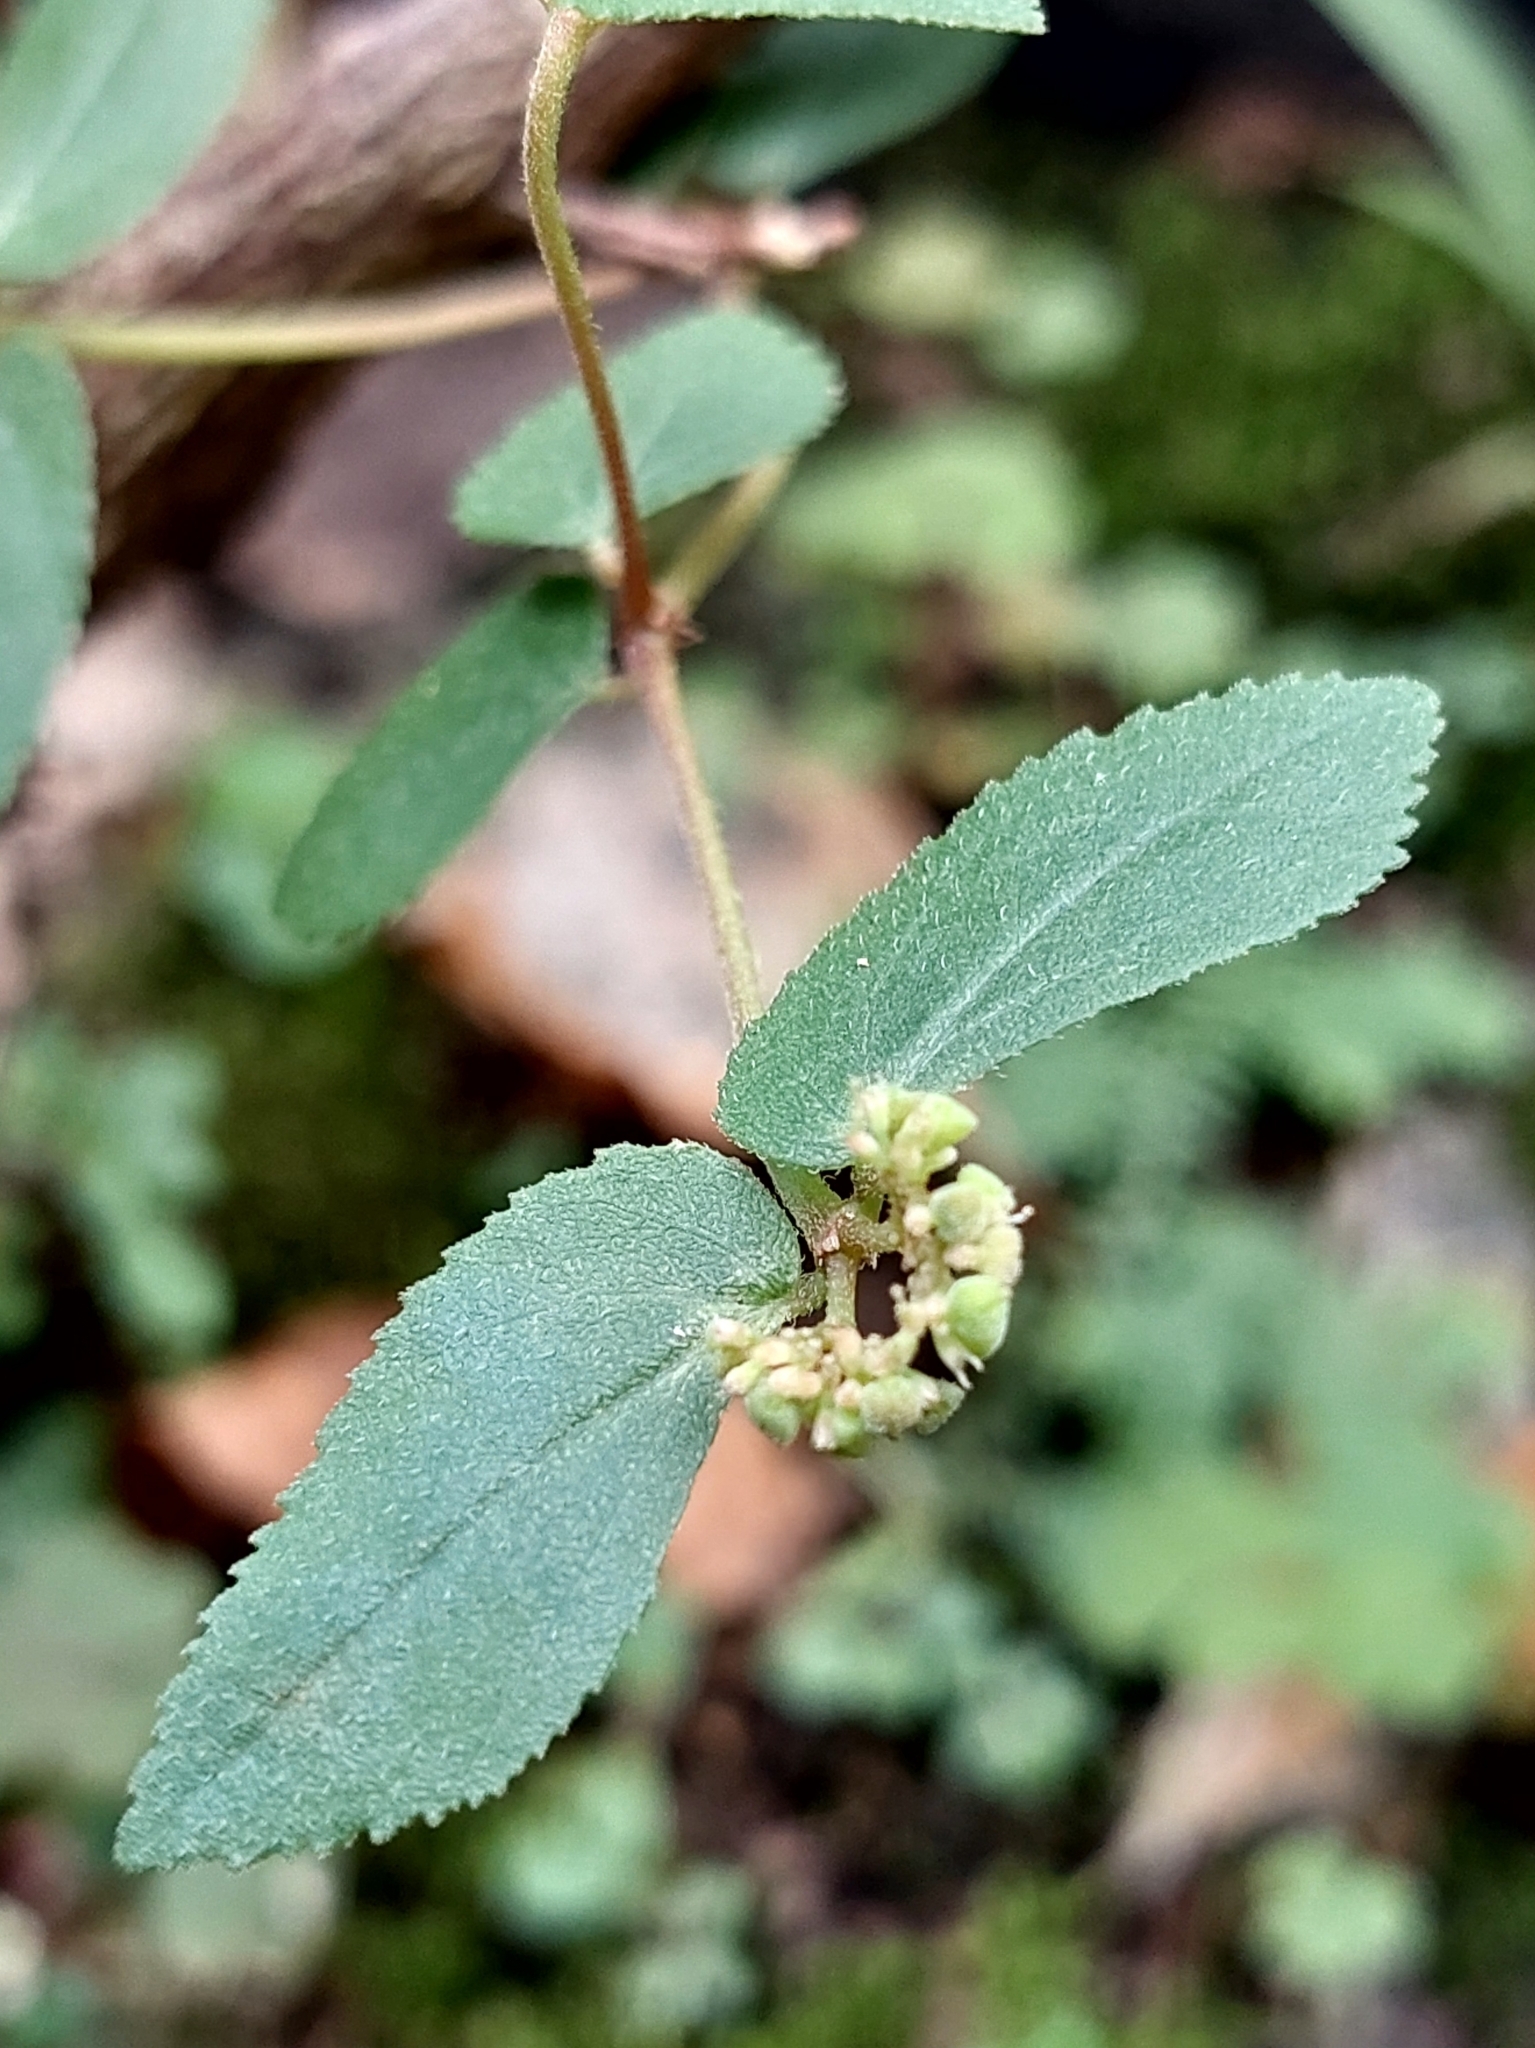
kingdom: Plantae
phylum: Tracheophyta
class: Magnoliopsida
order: Malpighiales
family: Euphorbiaceae
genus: Euphorbia
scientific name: Euphorbia ophthalmica
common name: Florida hammock sandmat
